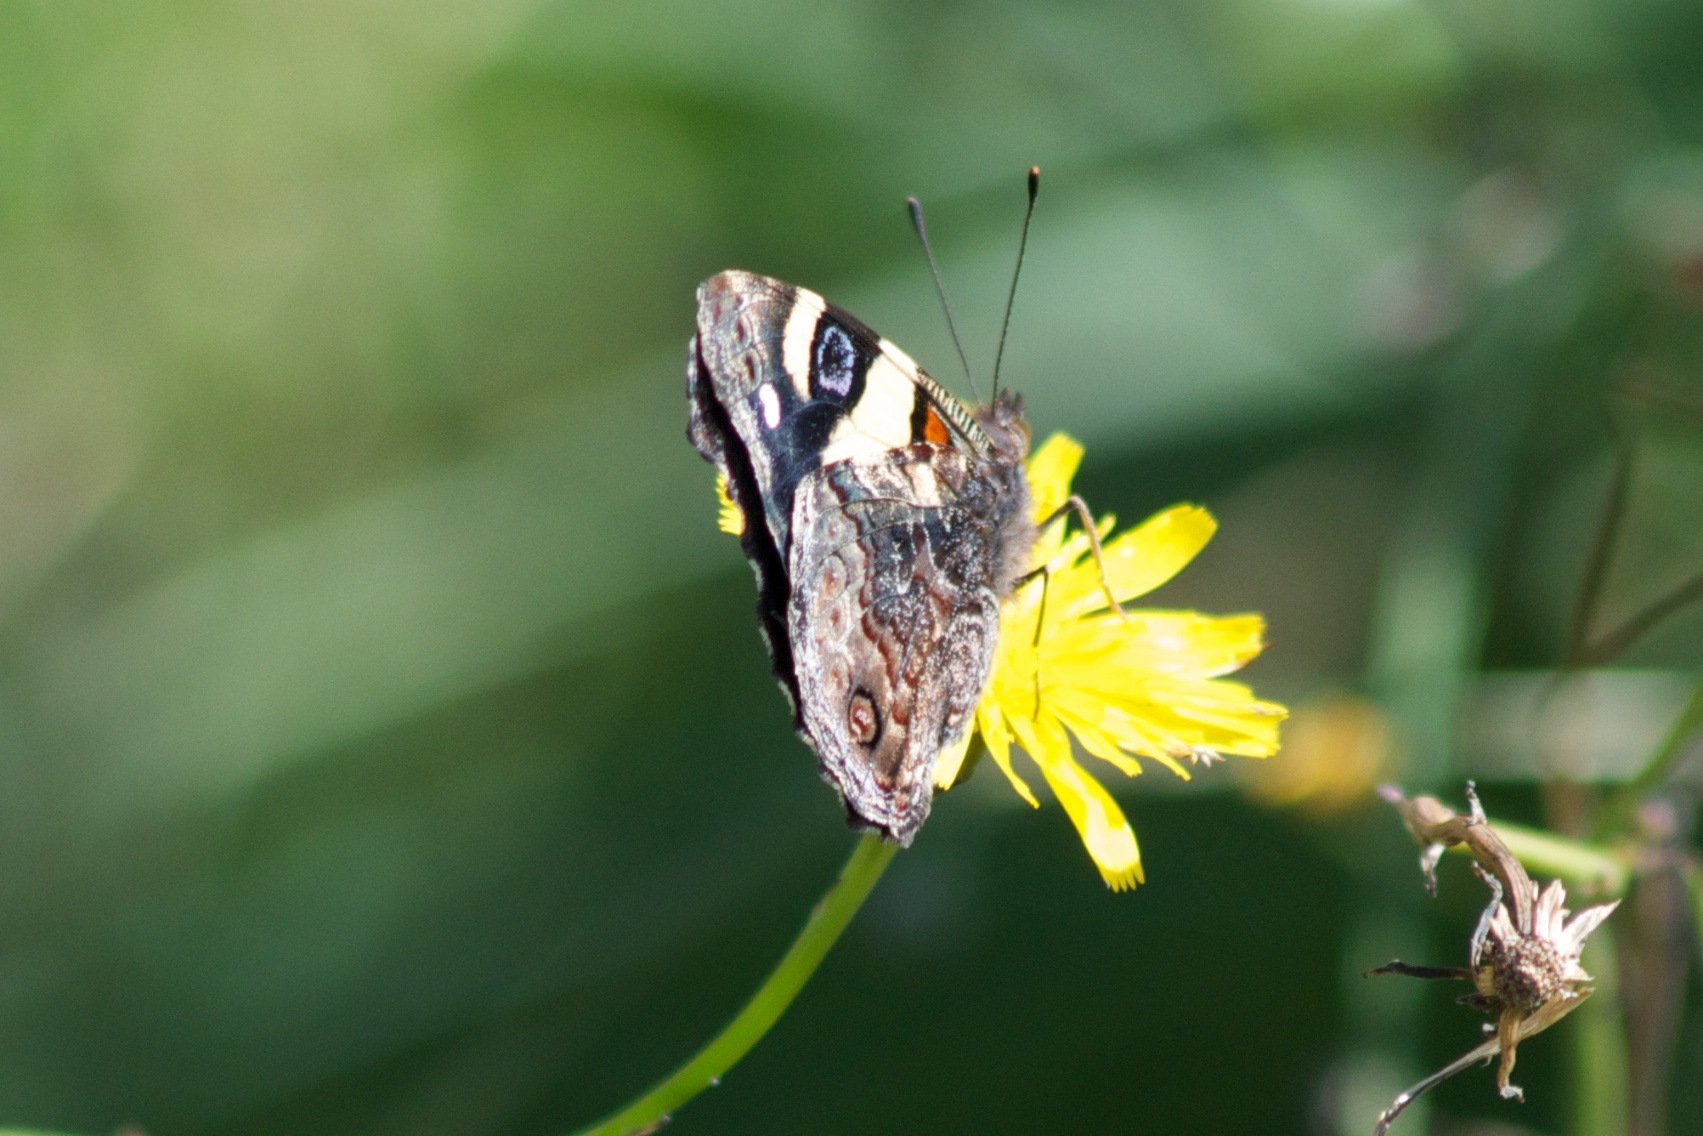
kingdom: Animalia
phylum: Arthropoda
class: Insecta
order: Lepidoptera
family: Nymphalidae
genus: Vanessa
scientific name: Vanessa itea
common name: Yellow admiral
